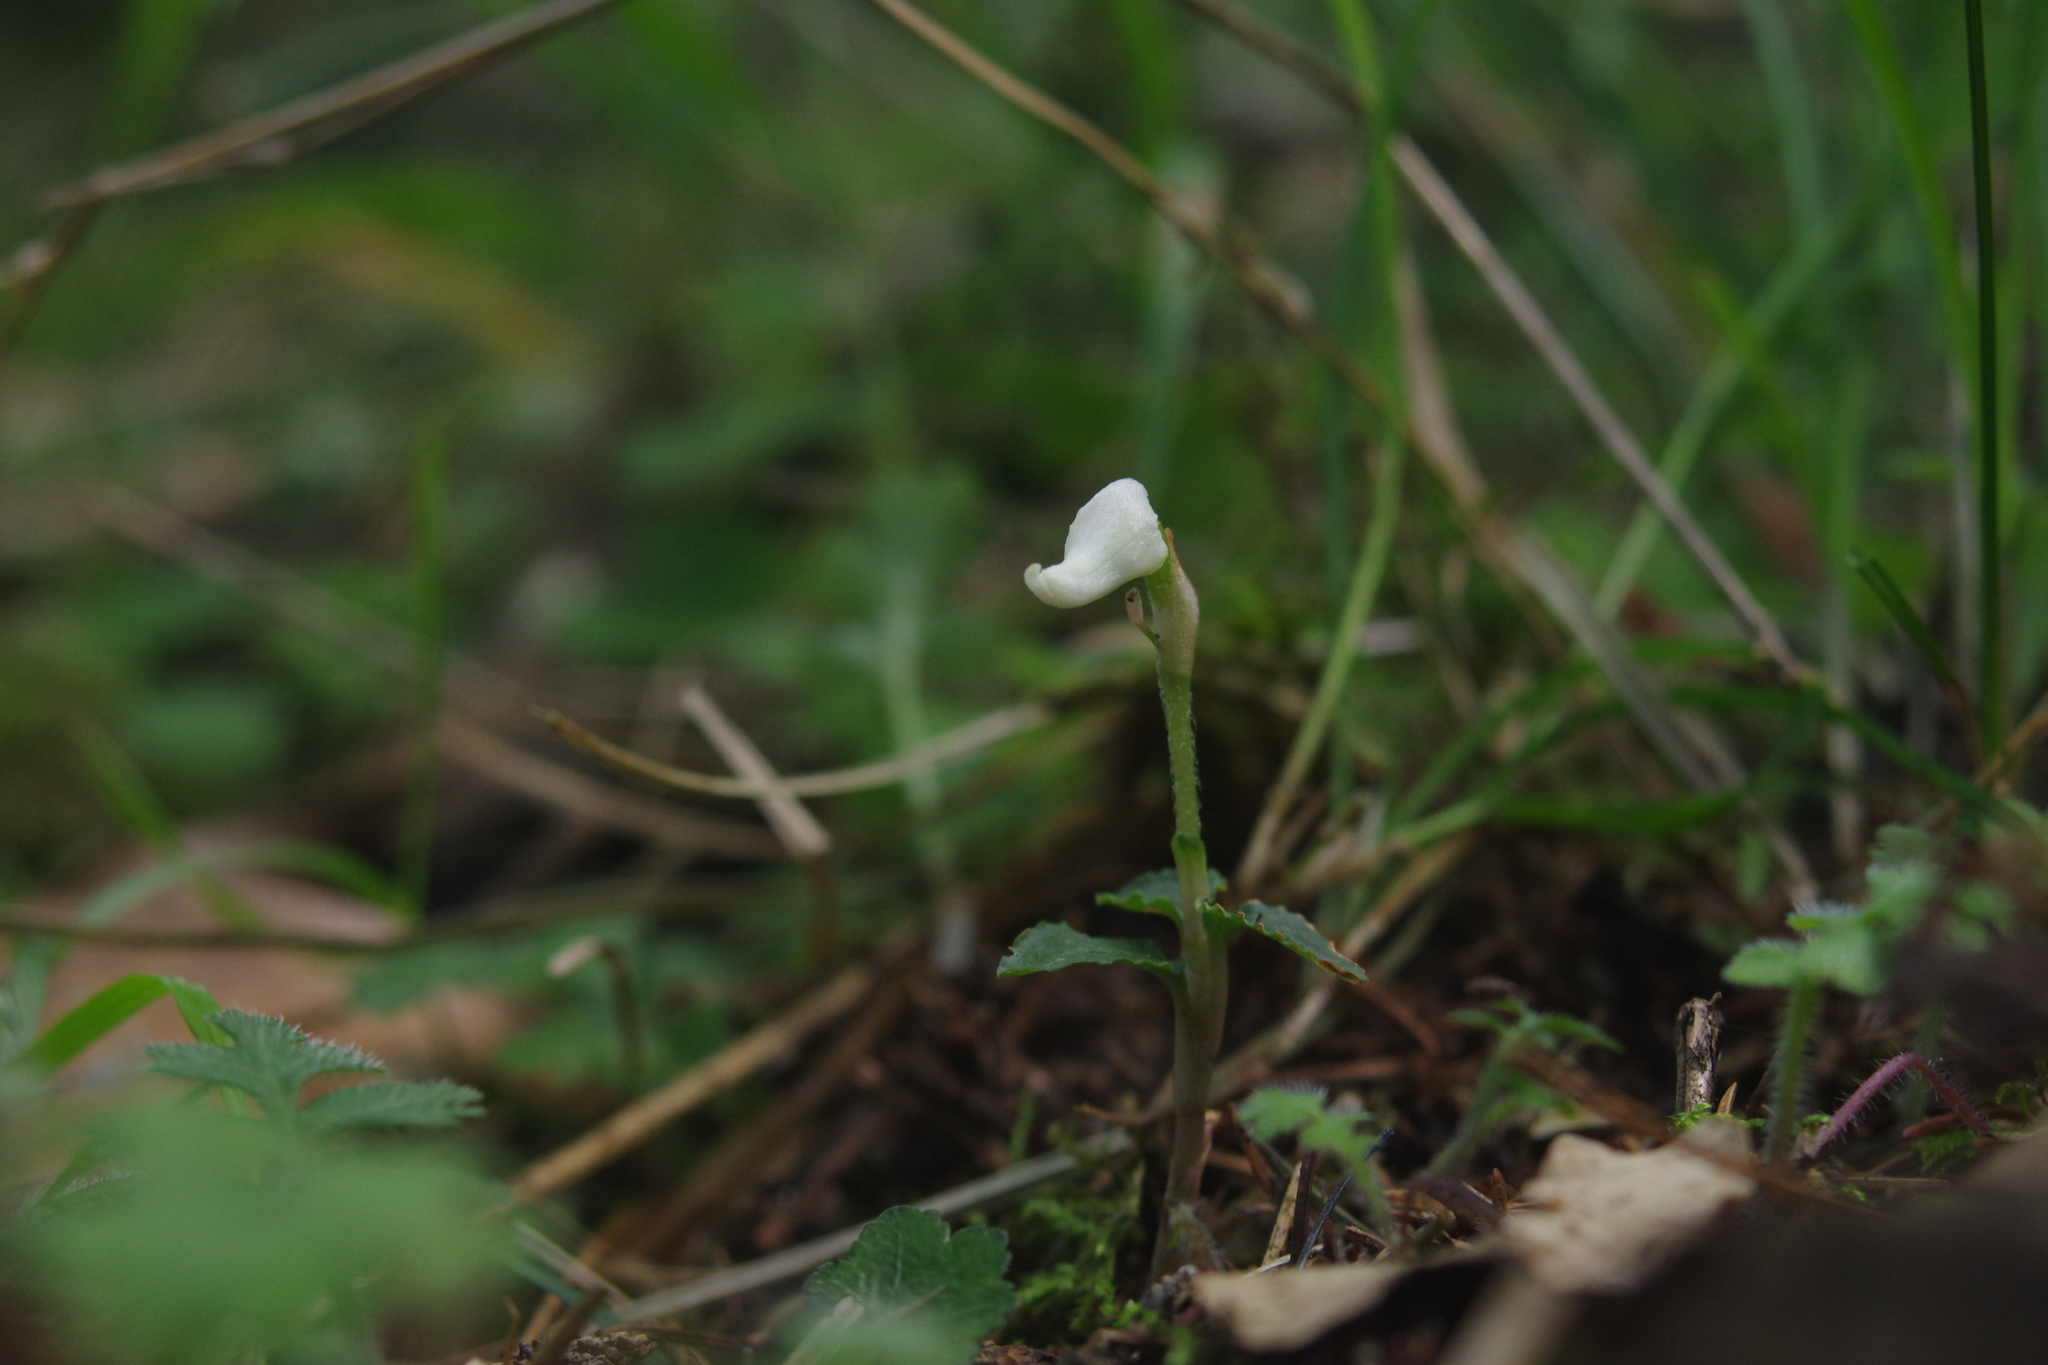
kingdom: Plantae
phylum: Tracheophyta
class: Liliopsida
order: Asparagales
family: Orchidaceae
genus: Odontochilus
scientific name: Odontochilus drymoglossifolius
